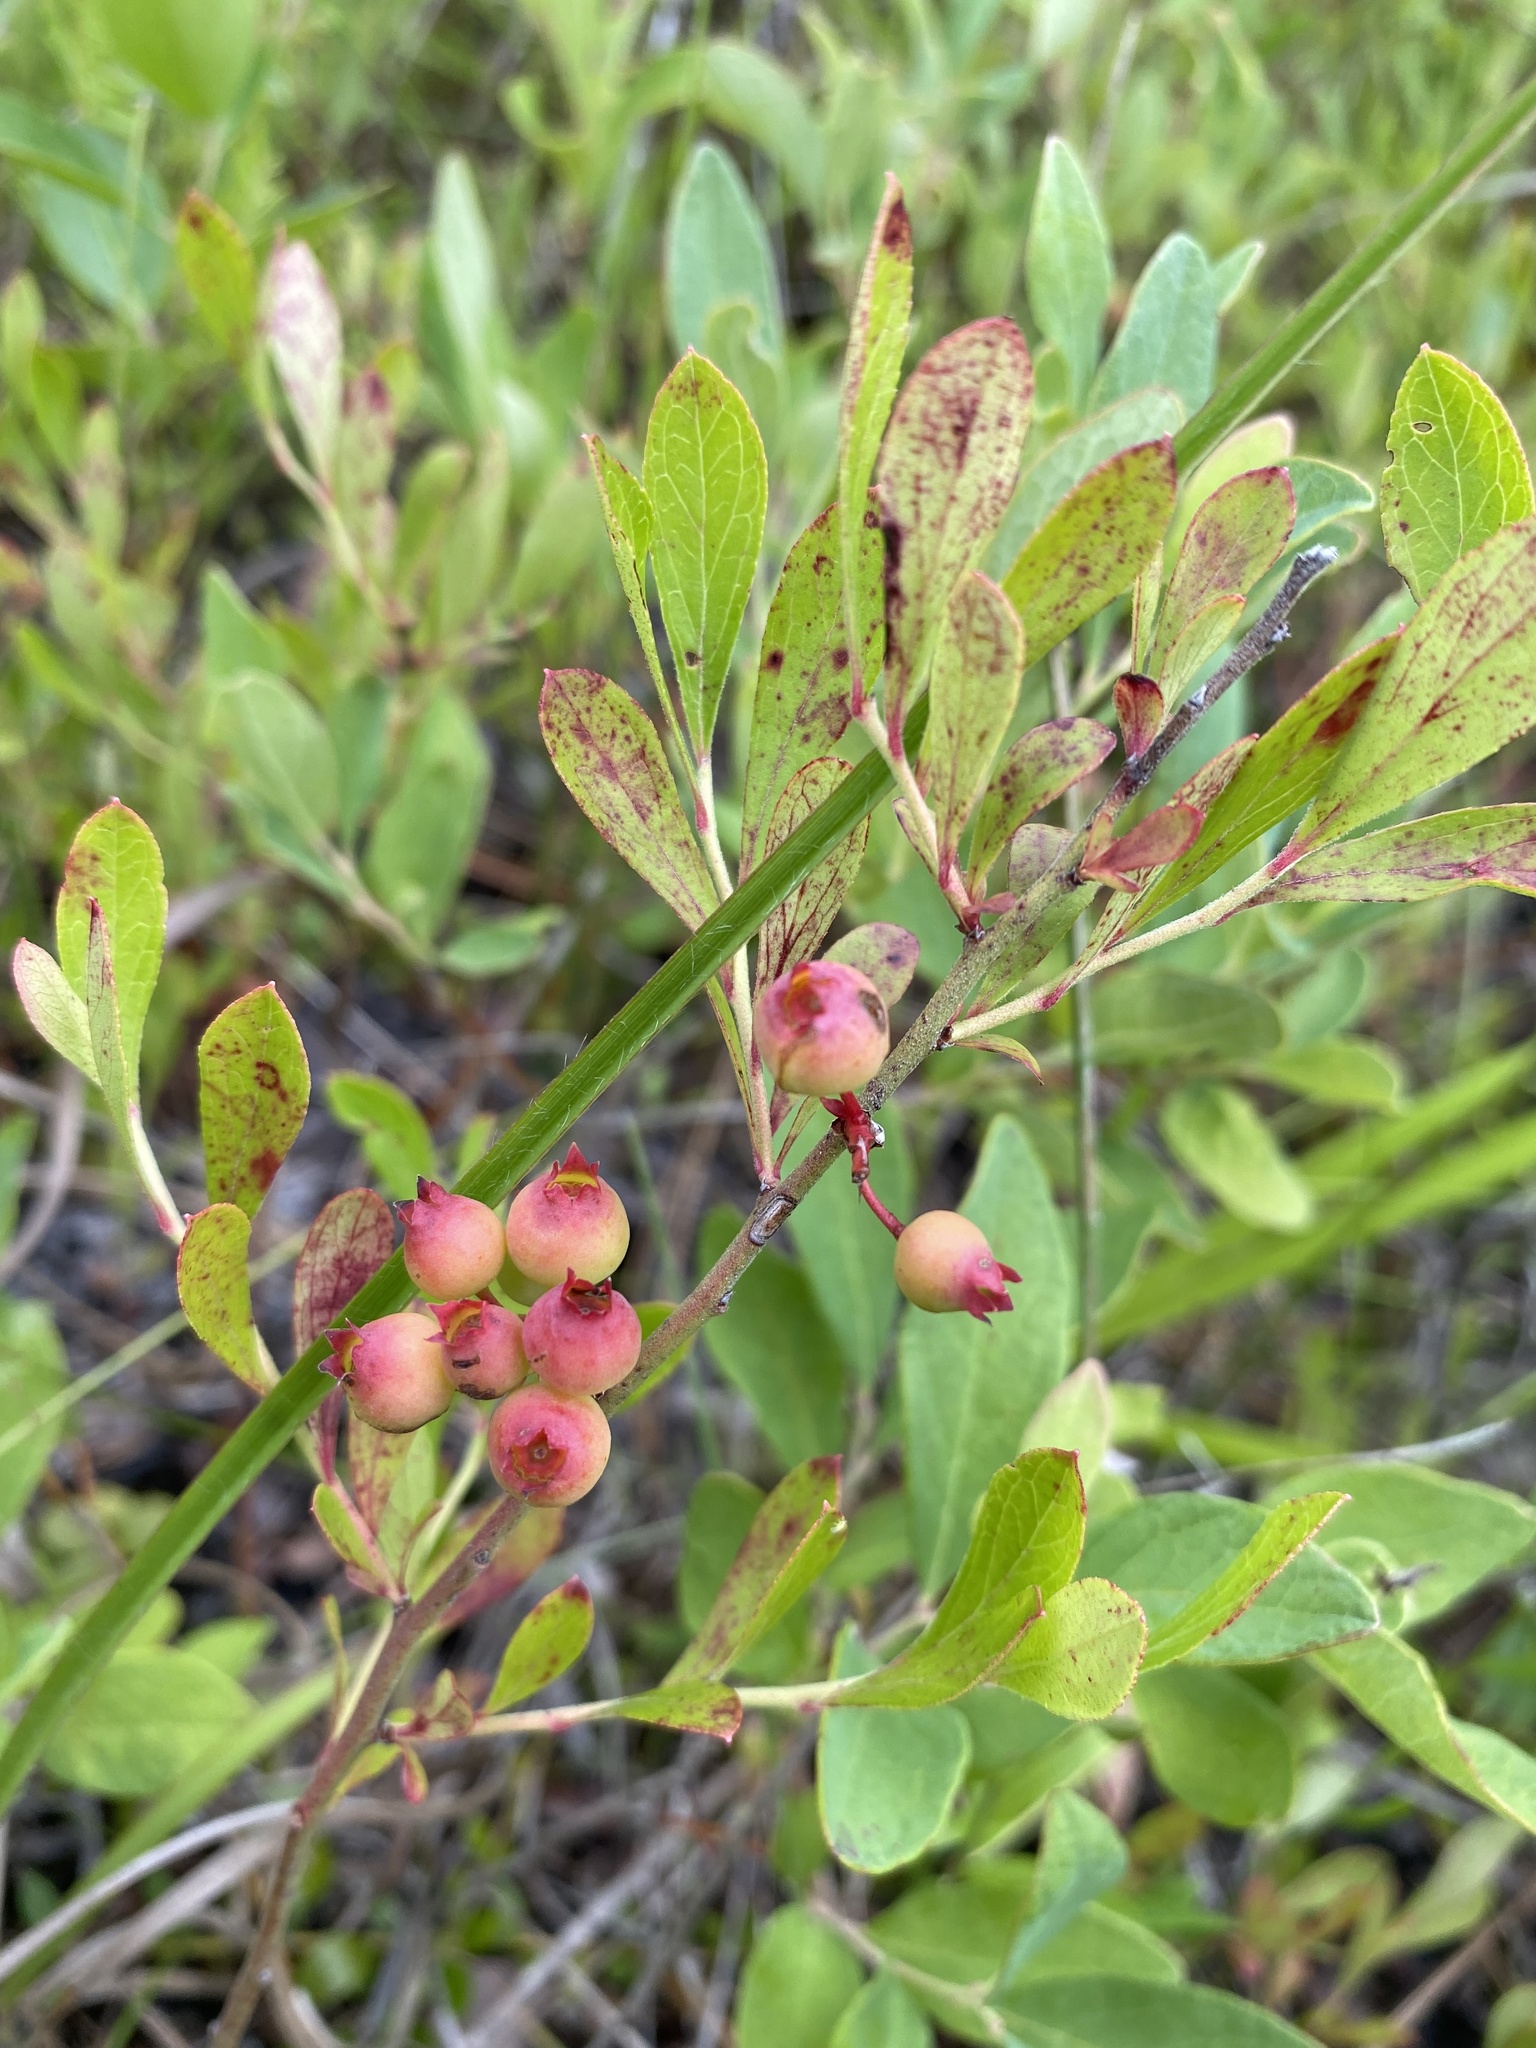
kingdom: Plantae
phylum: Tracheophyta
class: Magnoliopsida
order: Ericales
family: Ericaceae
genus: Vaccinium
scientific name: Vaccinium tenellum
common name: Southern blueberry
